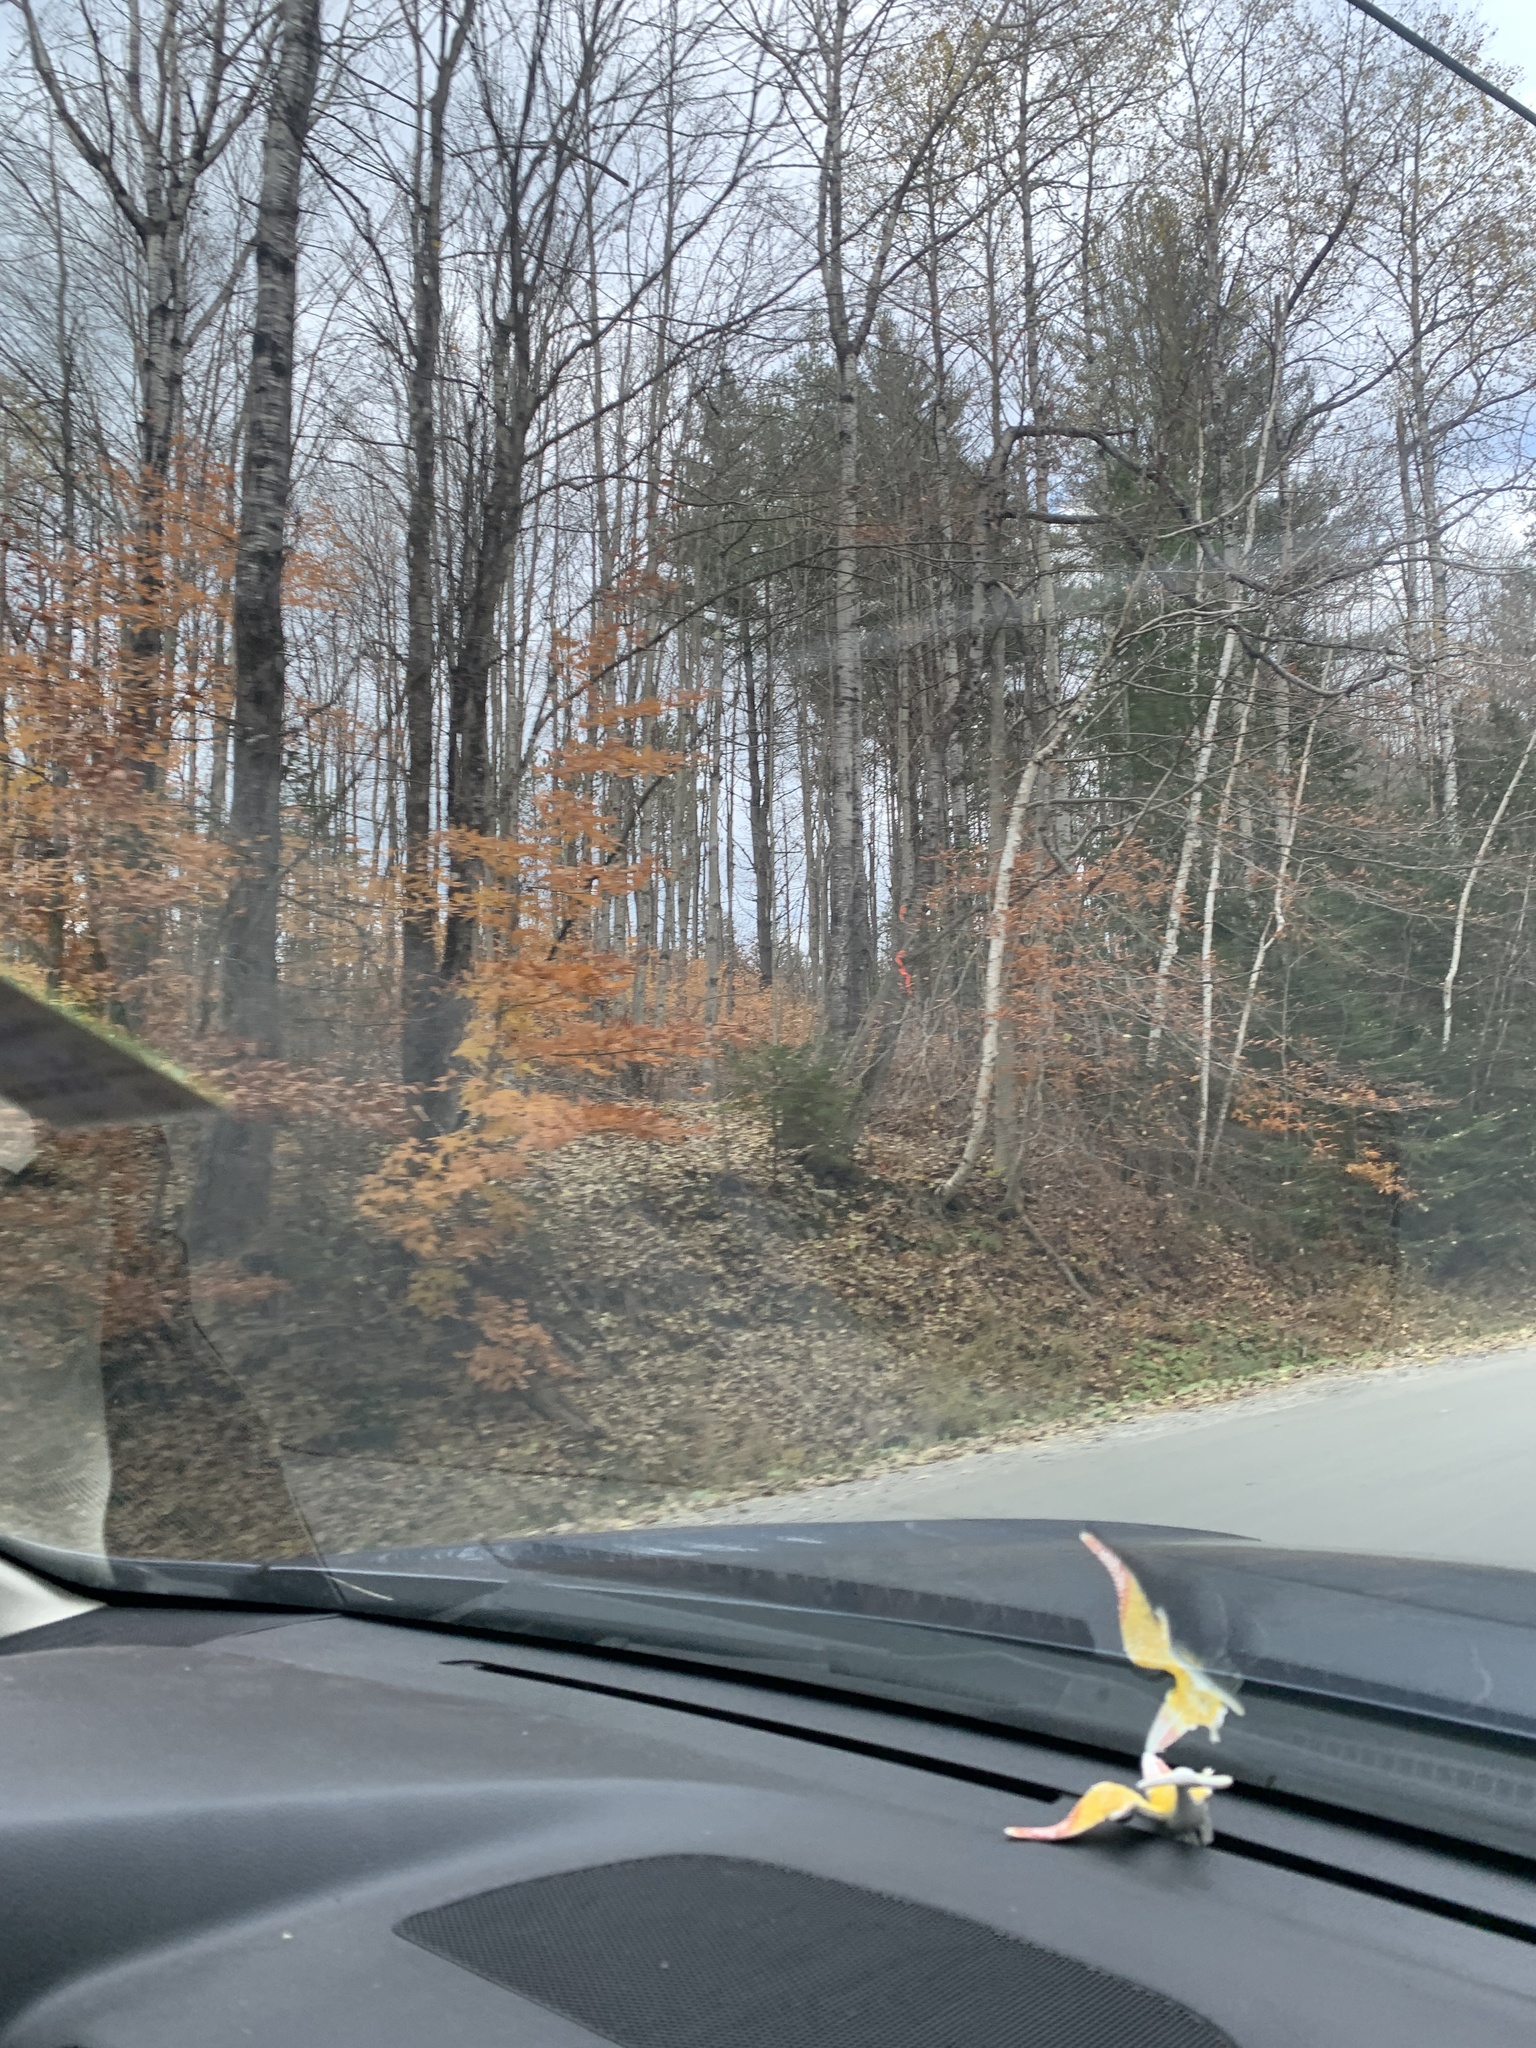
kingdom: Plantae
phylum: Tracheophyta
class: Magnoliopsida
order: Fagales
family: Fagaceae
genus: Fagus
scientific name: Fagus grandifolia
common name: American beech
